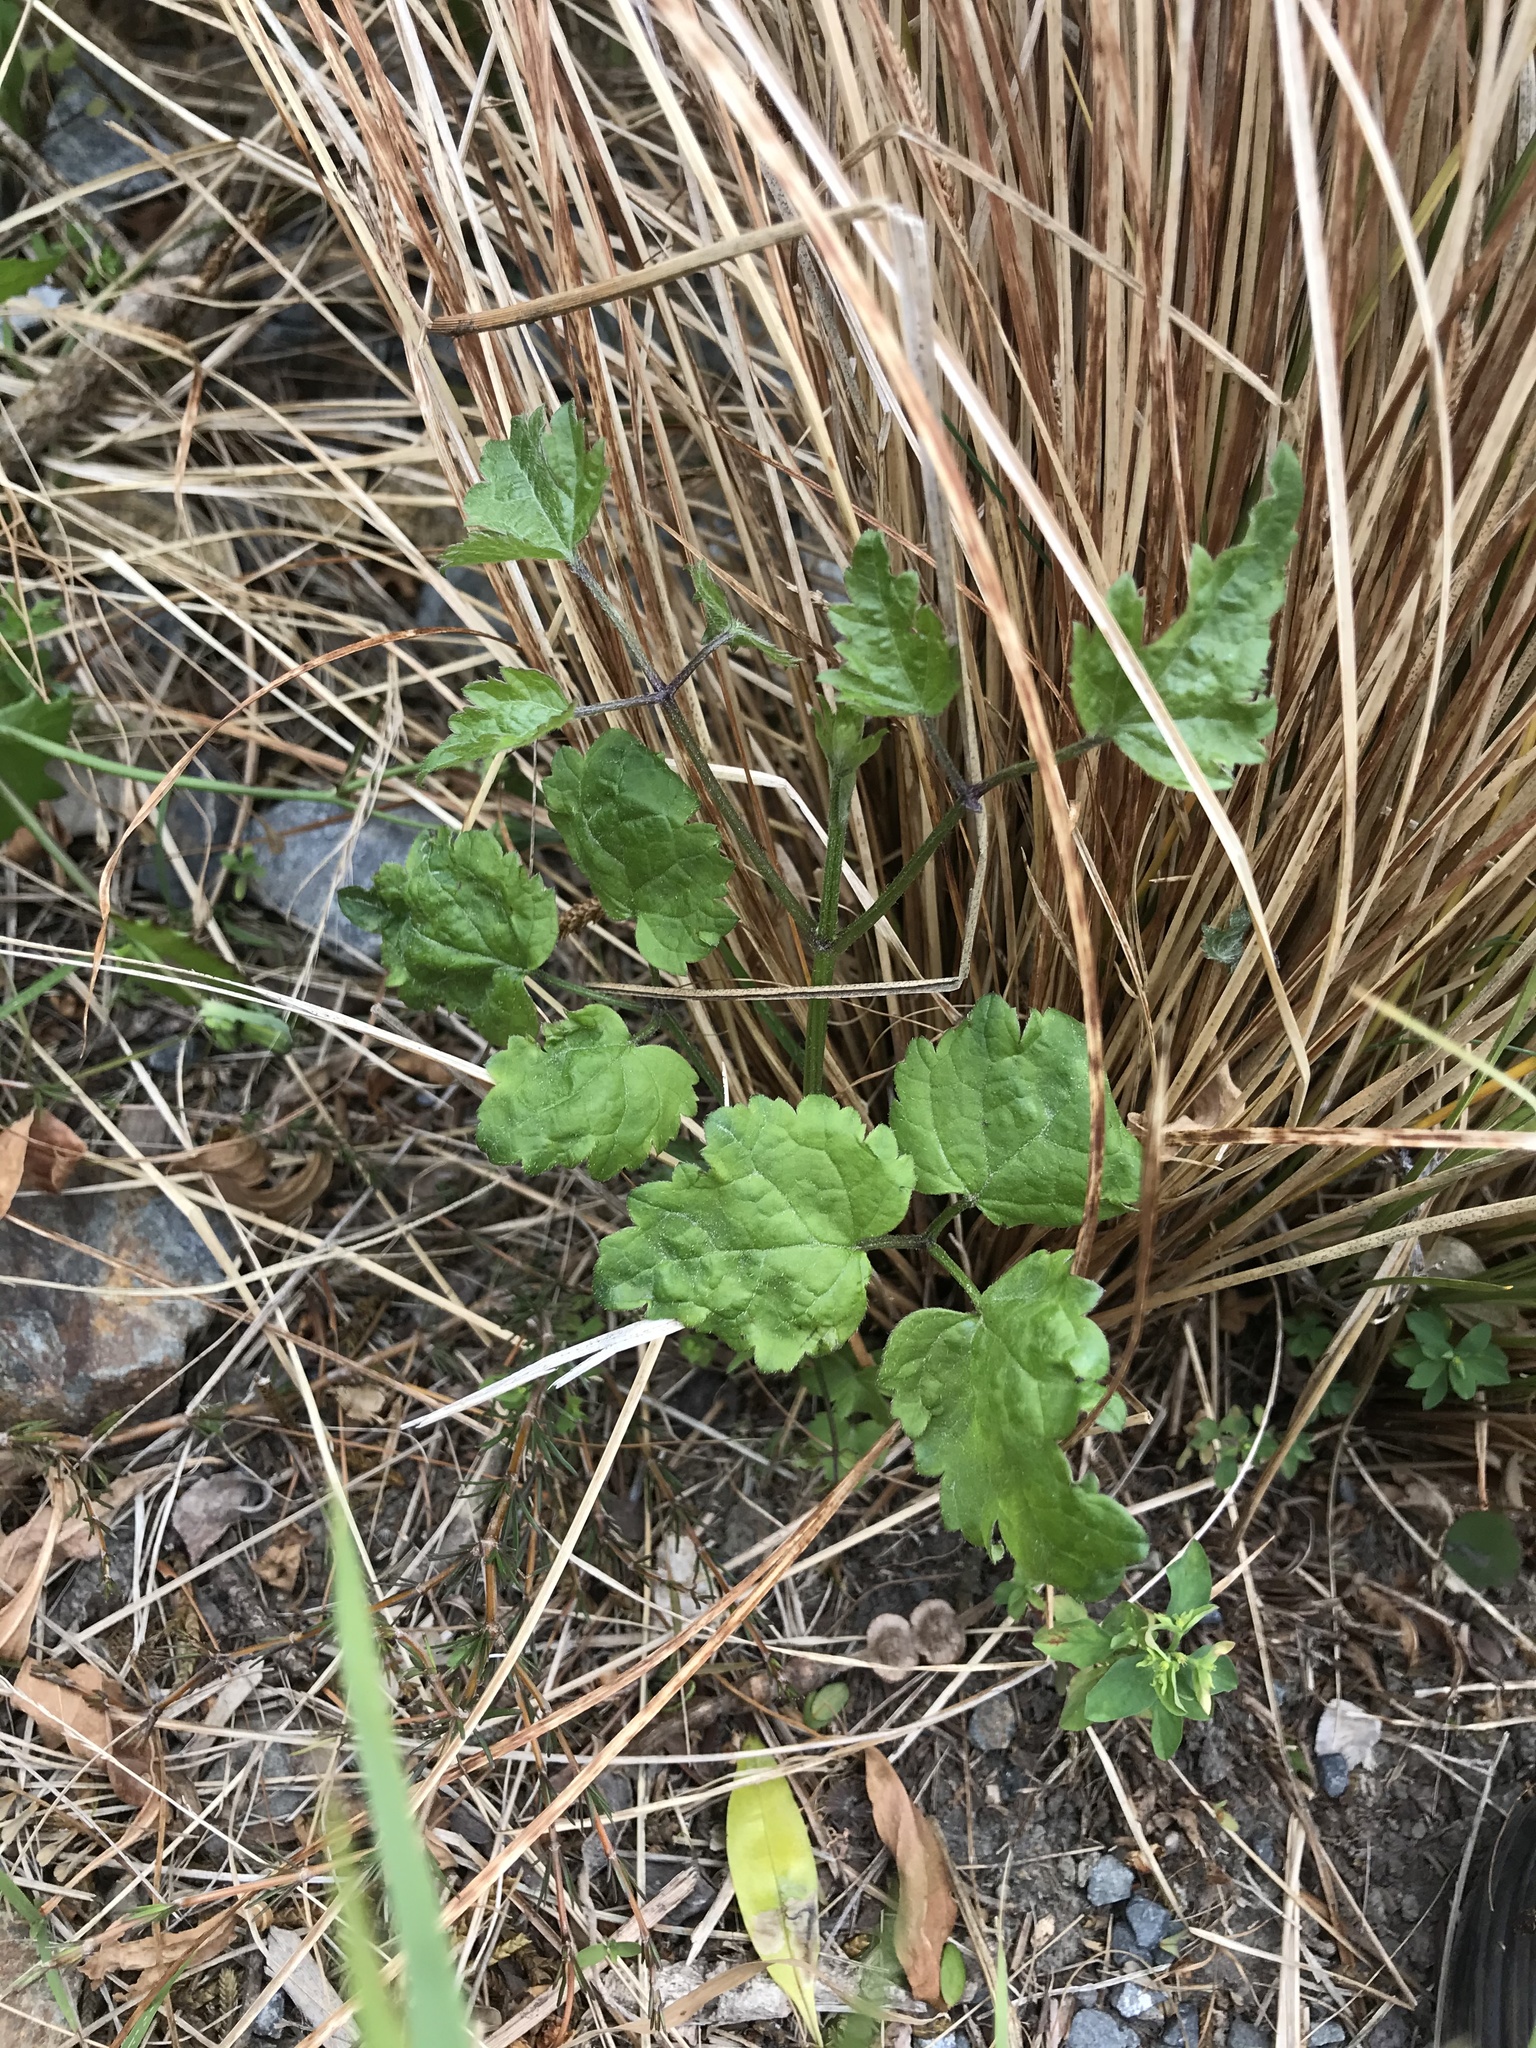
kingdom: Plantae
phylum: Tracheophyta
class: Magnoliopsida
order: Ranunculales
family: Ranunculaceae
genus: Clematis
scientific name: Clematis vitalba
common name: Evergreen clematis
